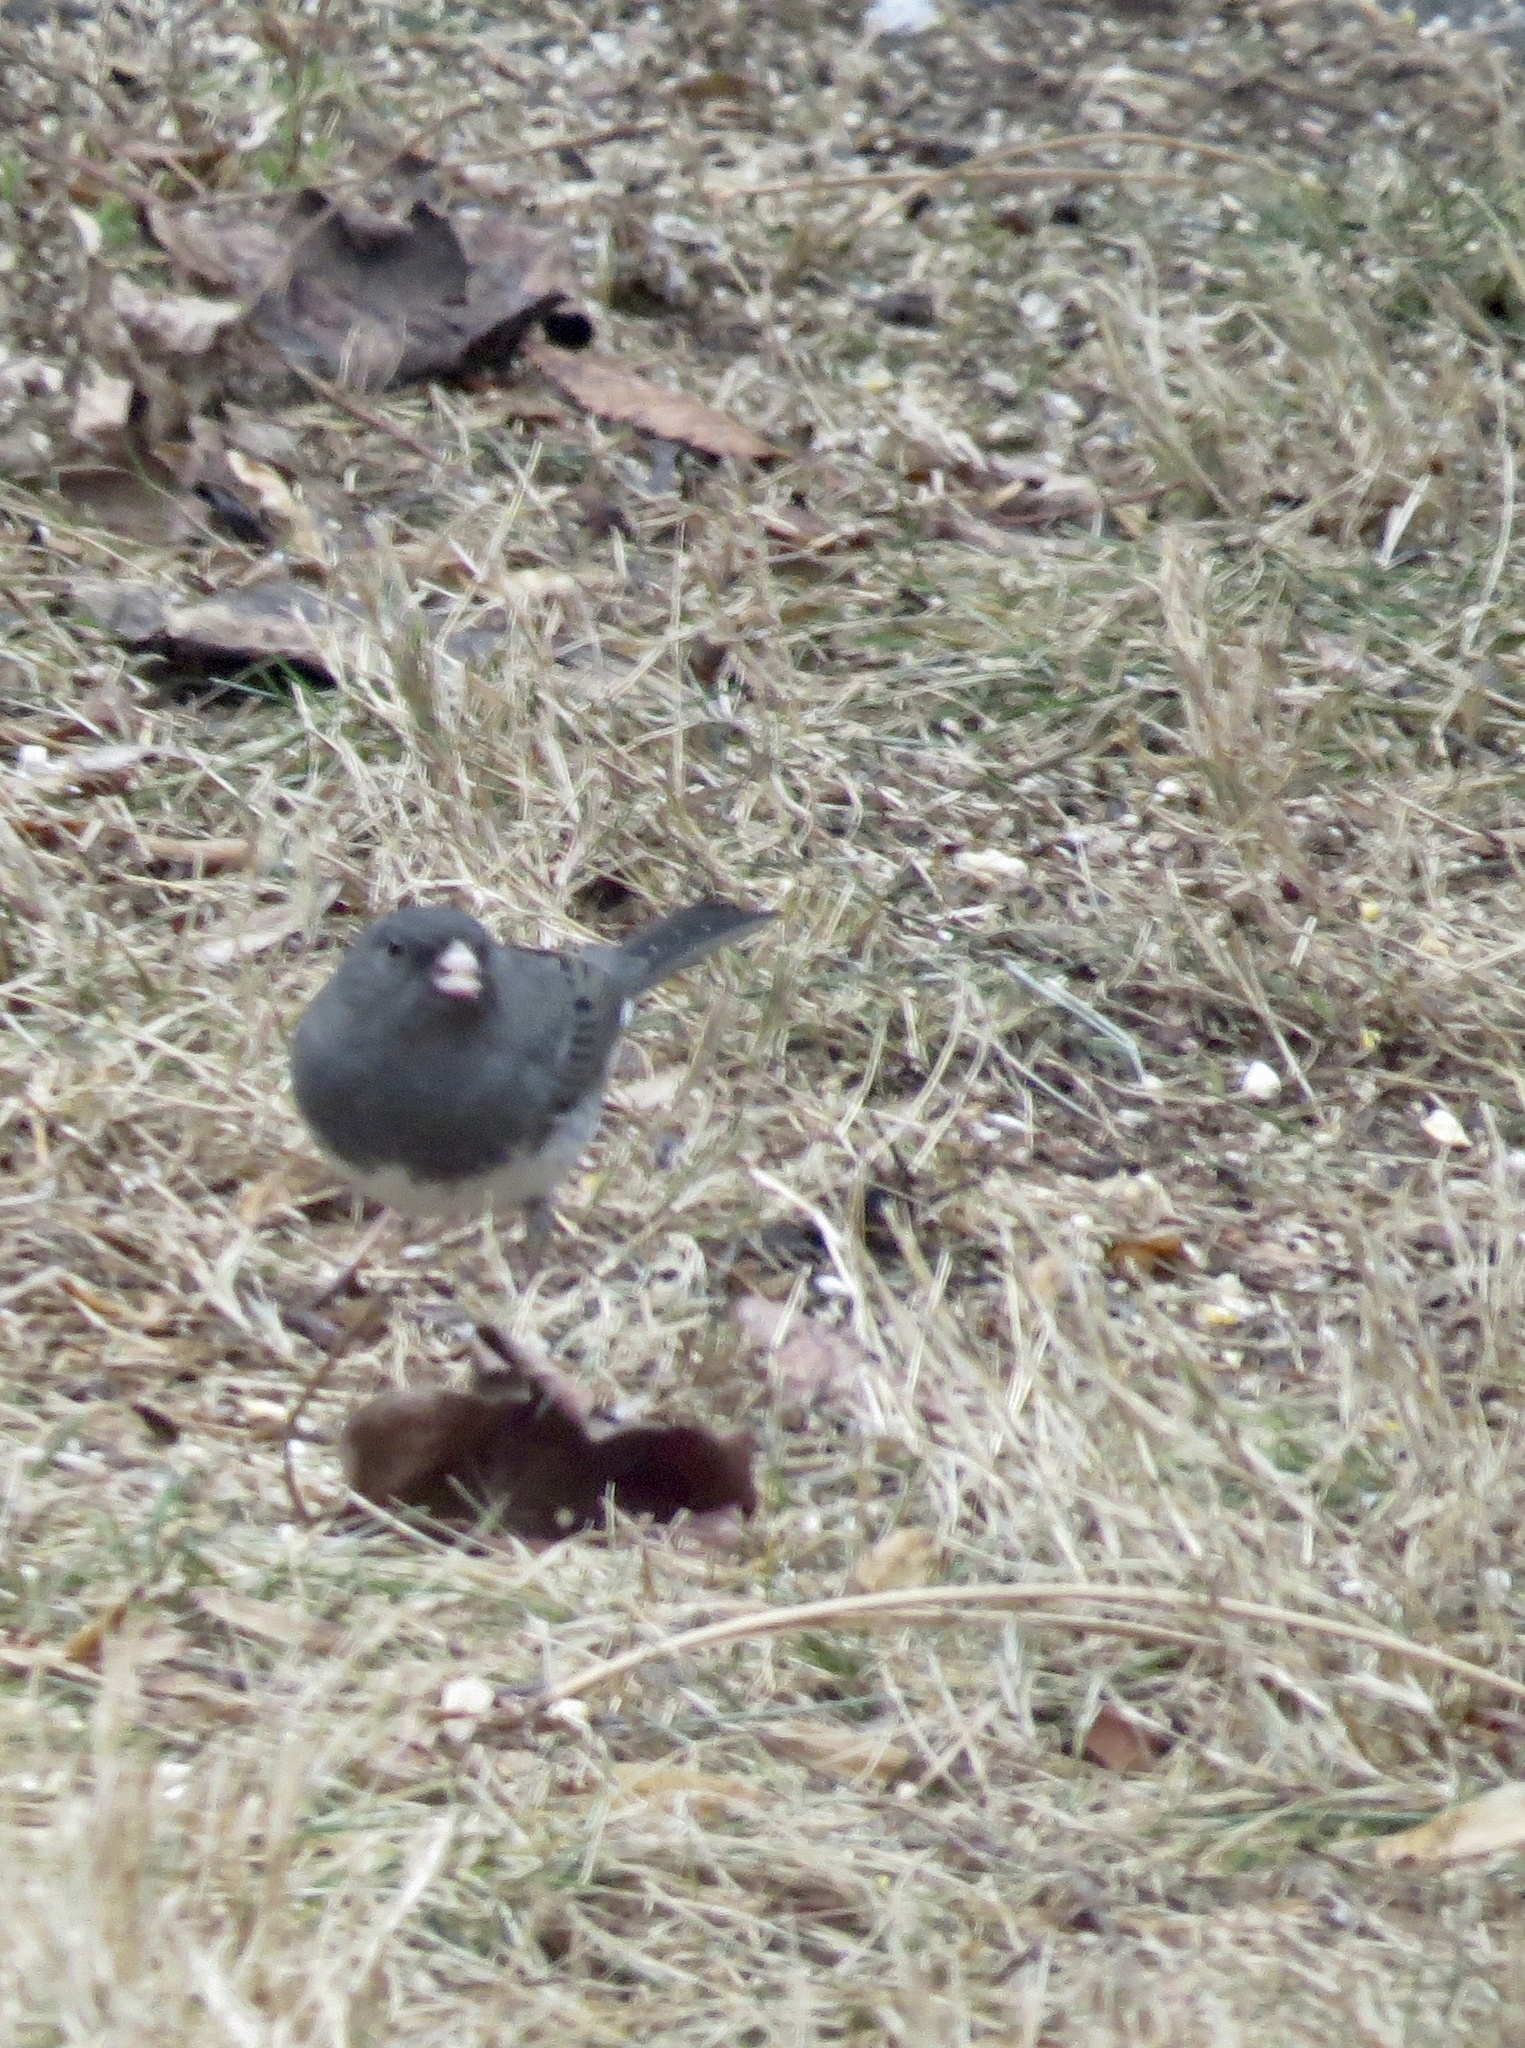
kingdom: Animalia
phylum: Chordata
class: Aves
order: Passeriformes
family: Passerellidae
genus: Junco
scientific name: Junco hyemalis
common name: Dark-eyed junco
